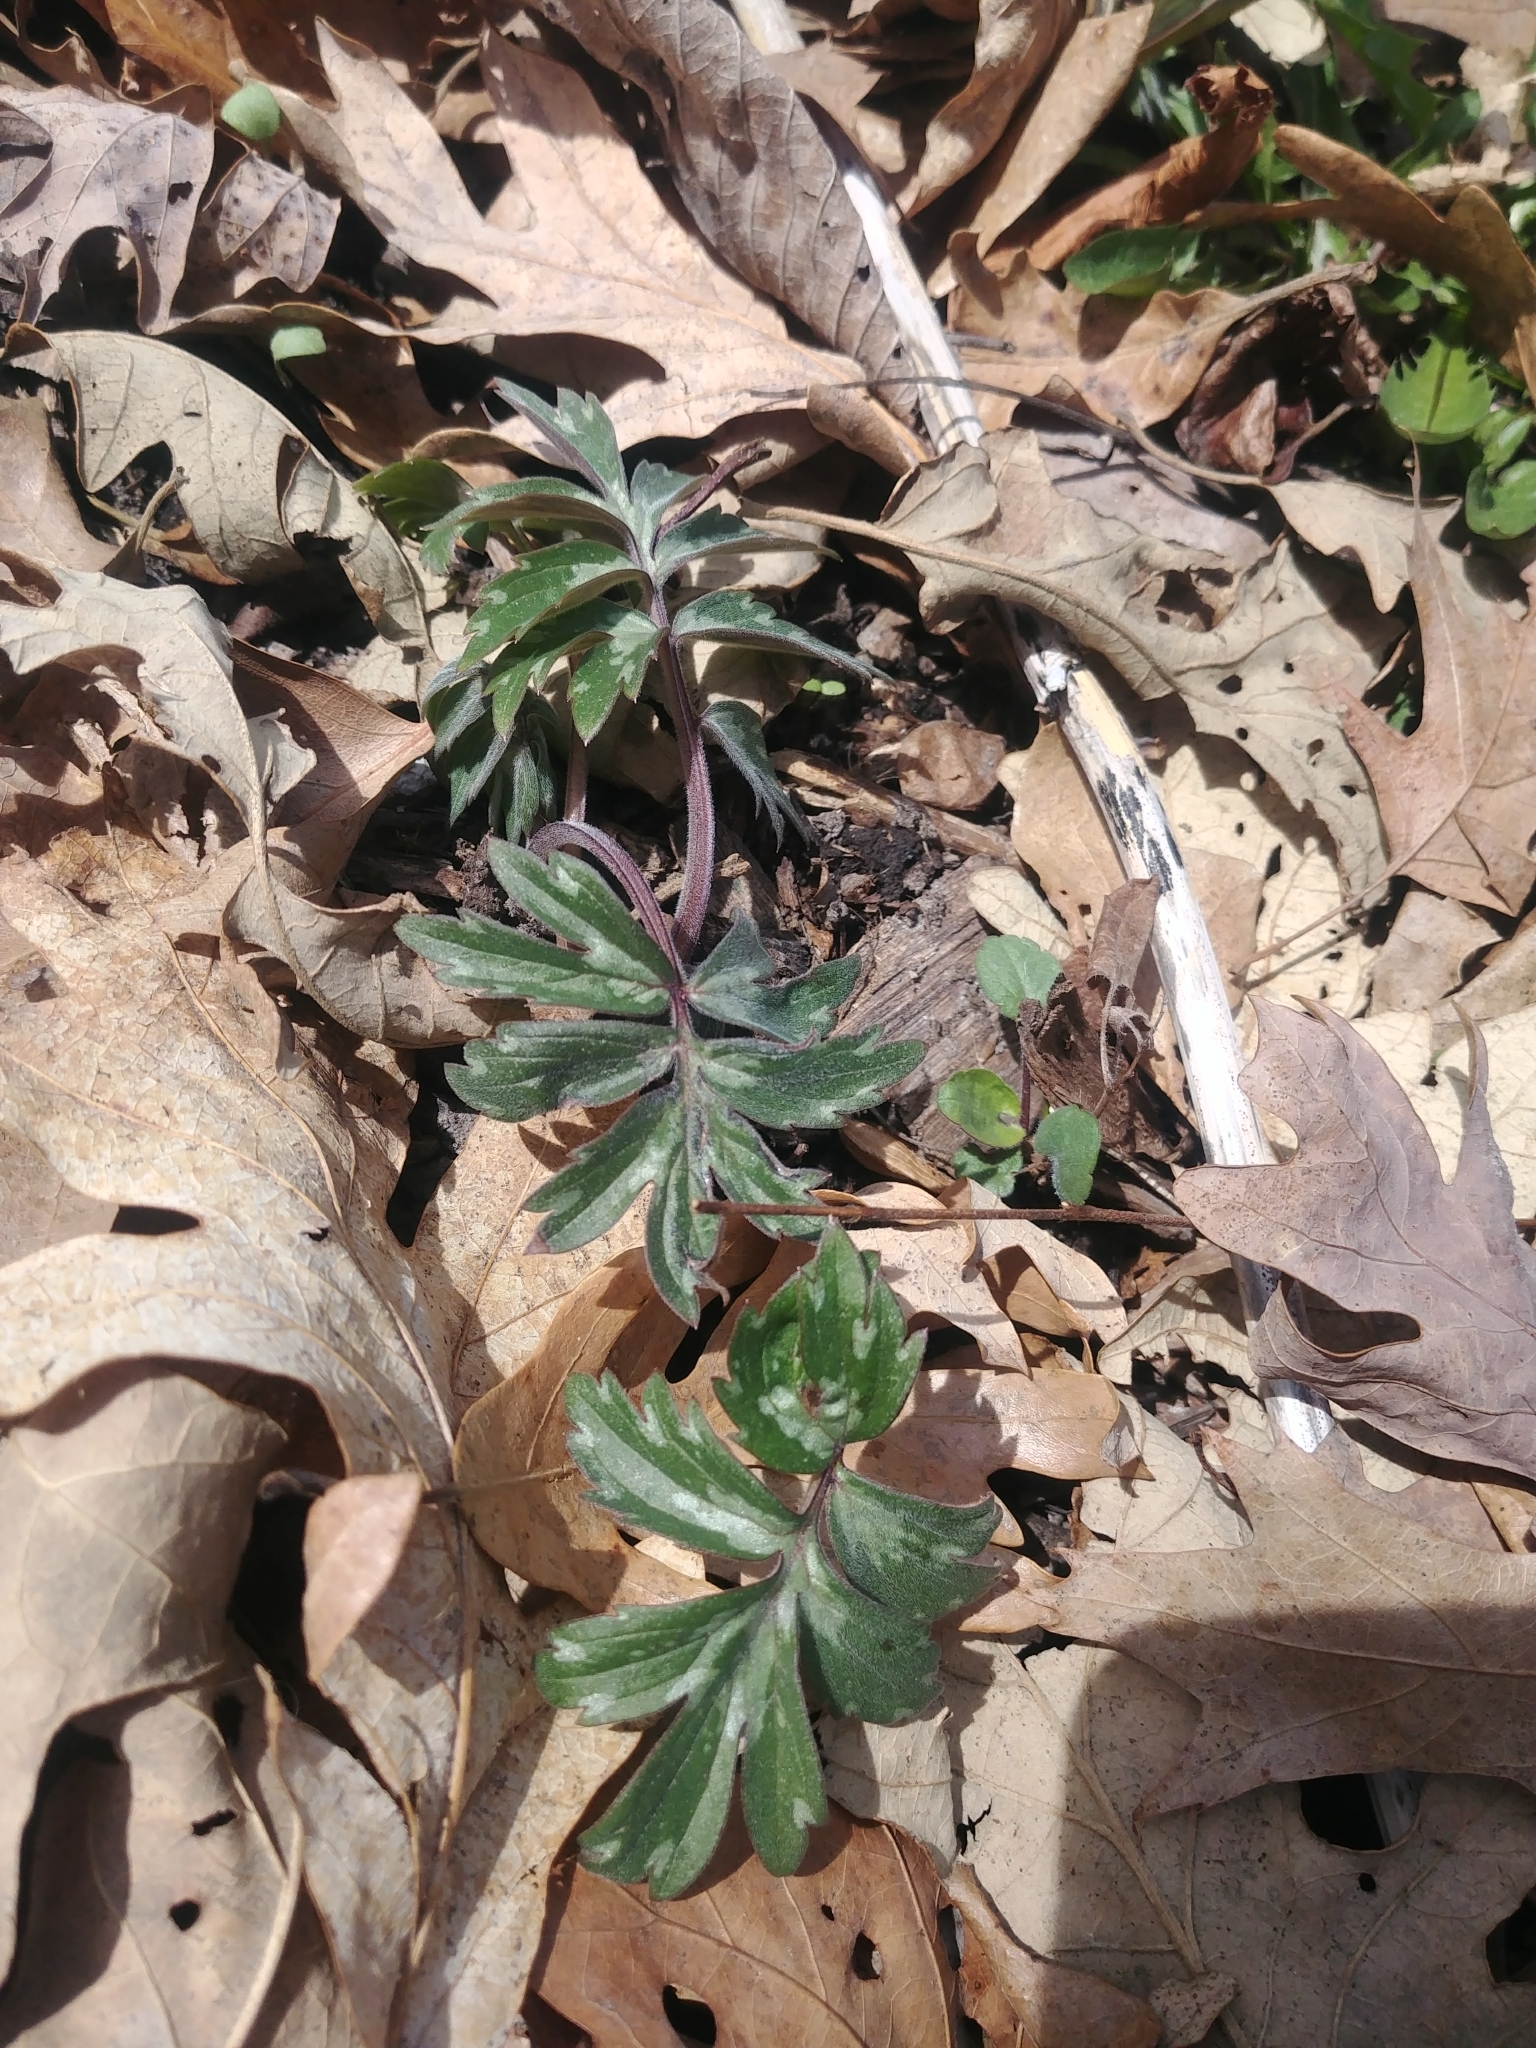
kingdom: Plantae
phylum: Tracheophyta
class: Magnoliopsida
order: Boraginales
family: Hydrophyllaceae
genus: Hydrophyllum
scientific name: Hydrophyllum virginianum
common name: Virginia waterleaf
